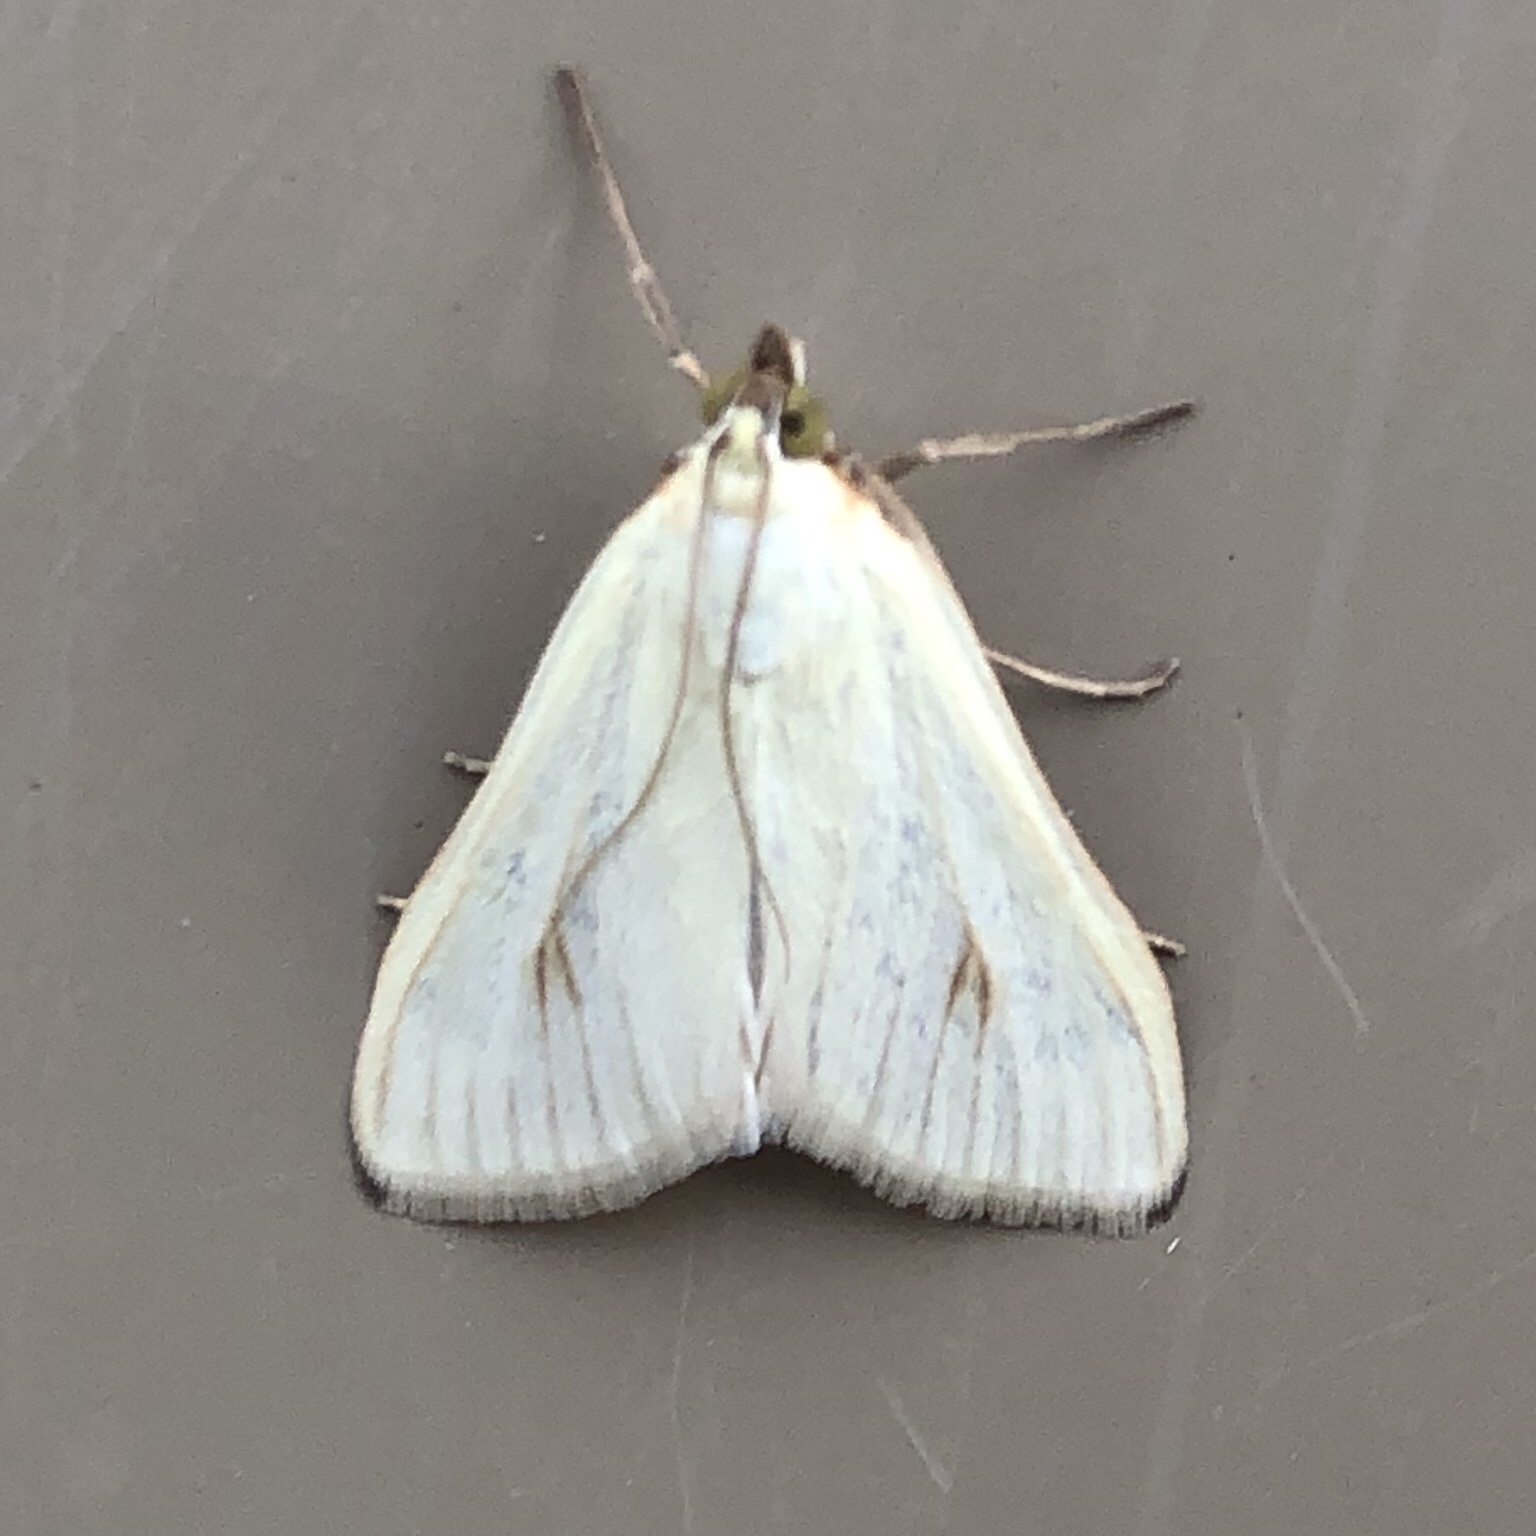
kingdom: Animalia
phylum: Arthropoda
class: Insecta
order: Lepidoptera
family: Crambidae
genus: Sitochroa
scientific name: Sitochroa palealis
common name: Greenish-yellow sitochroa moth
